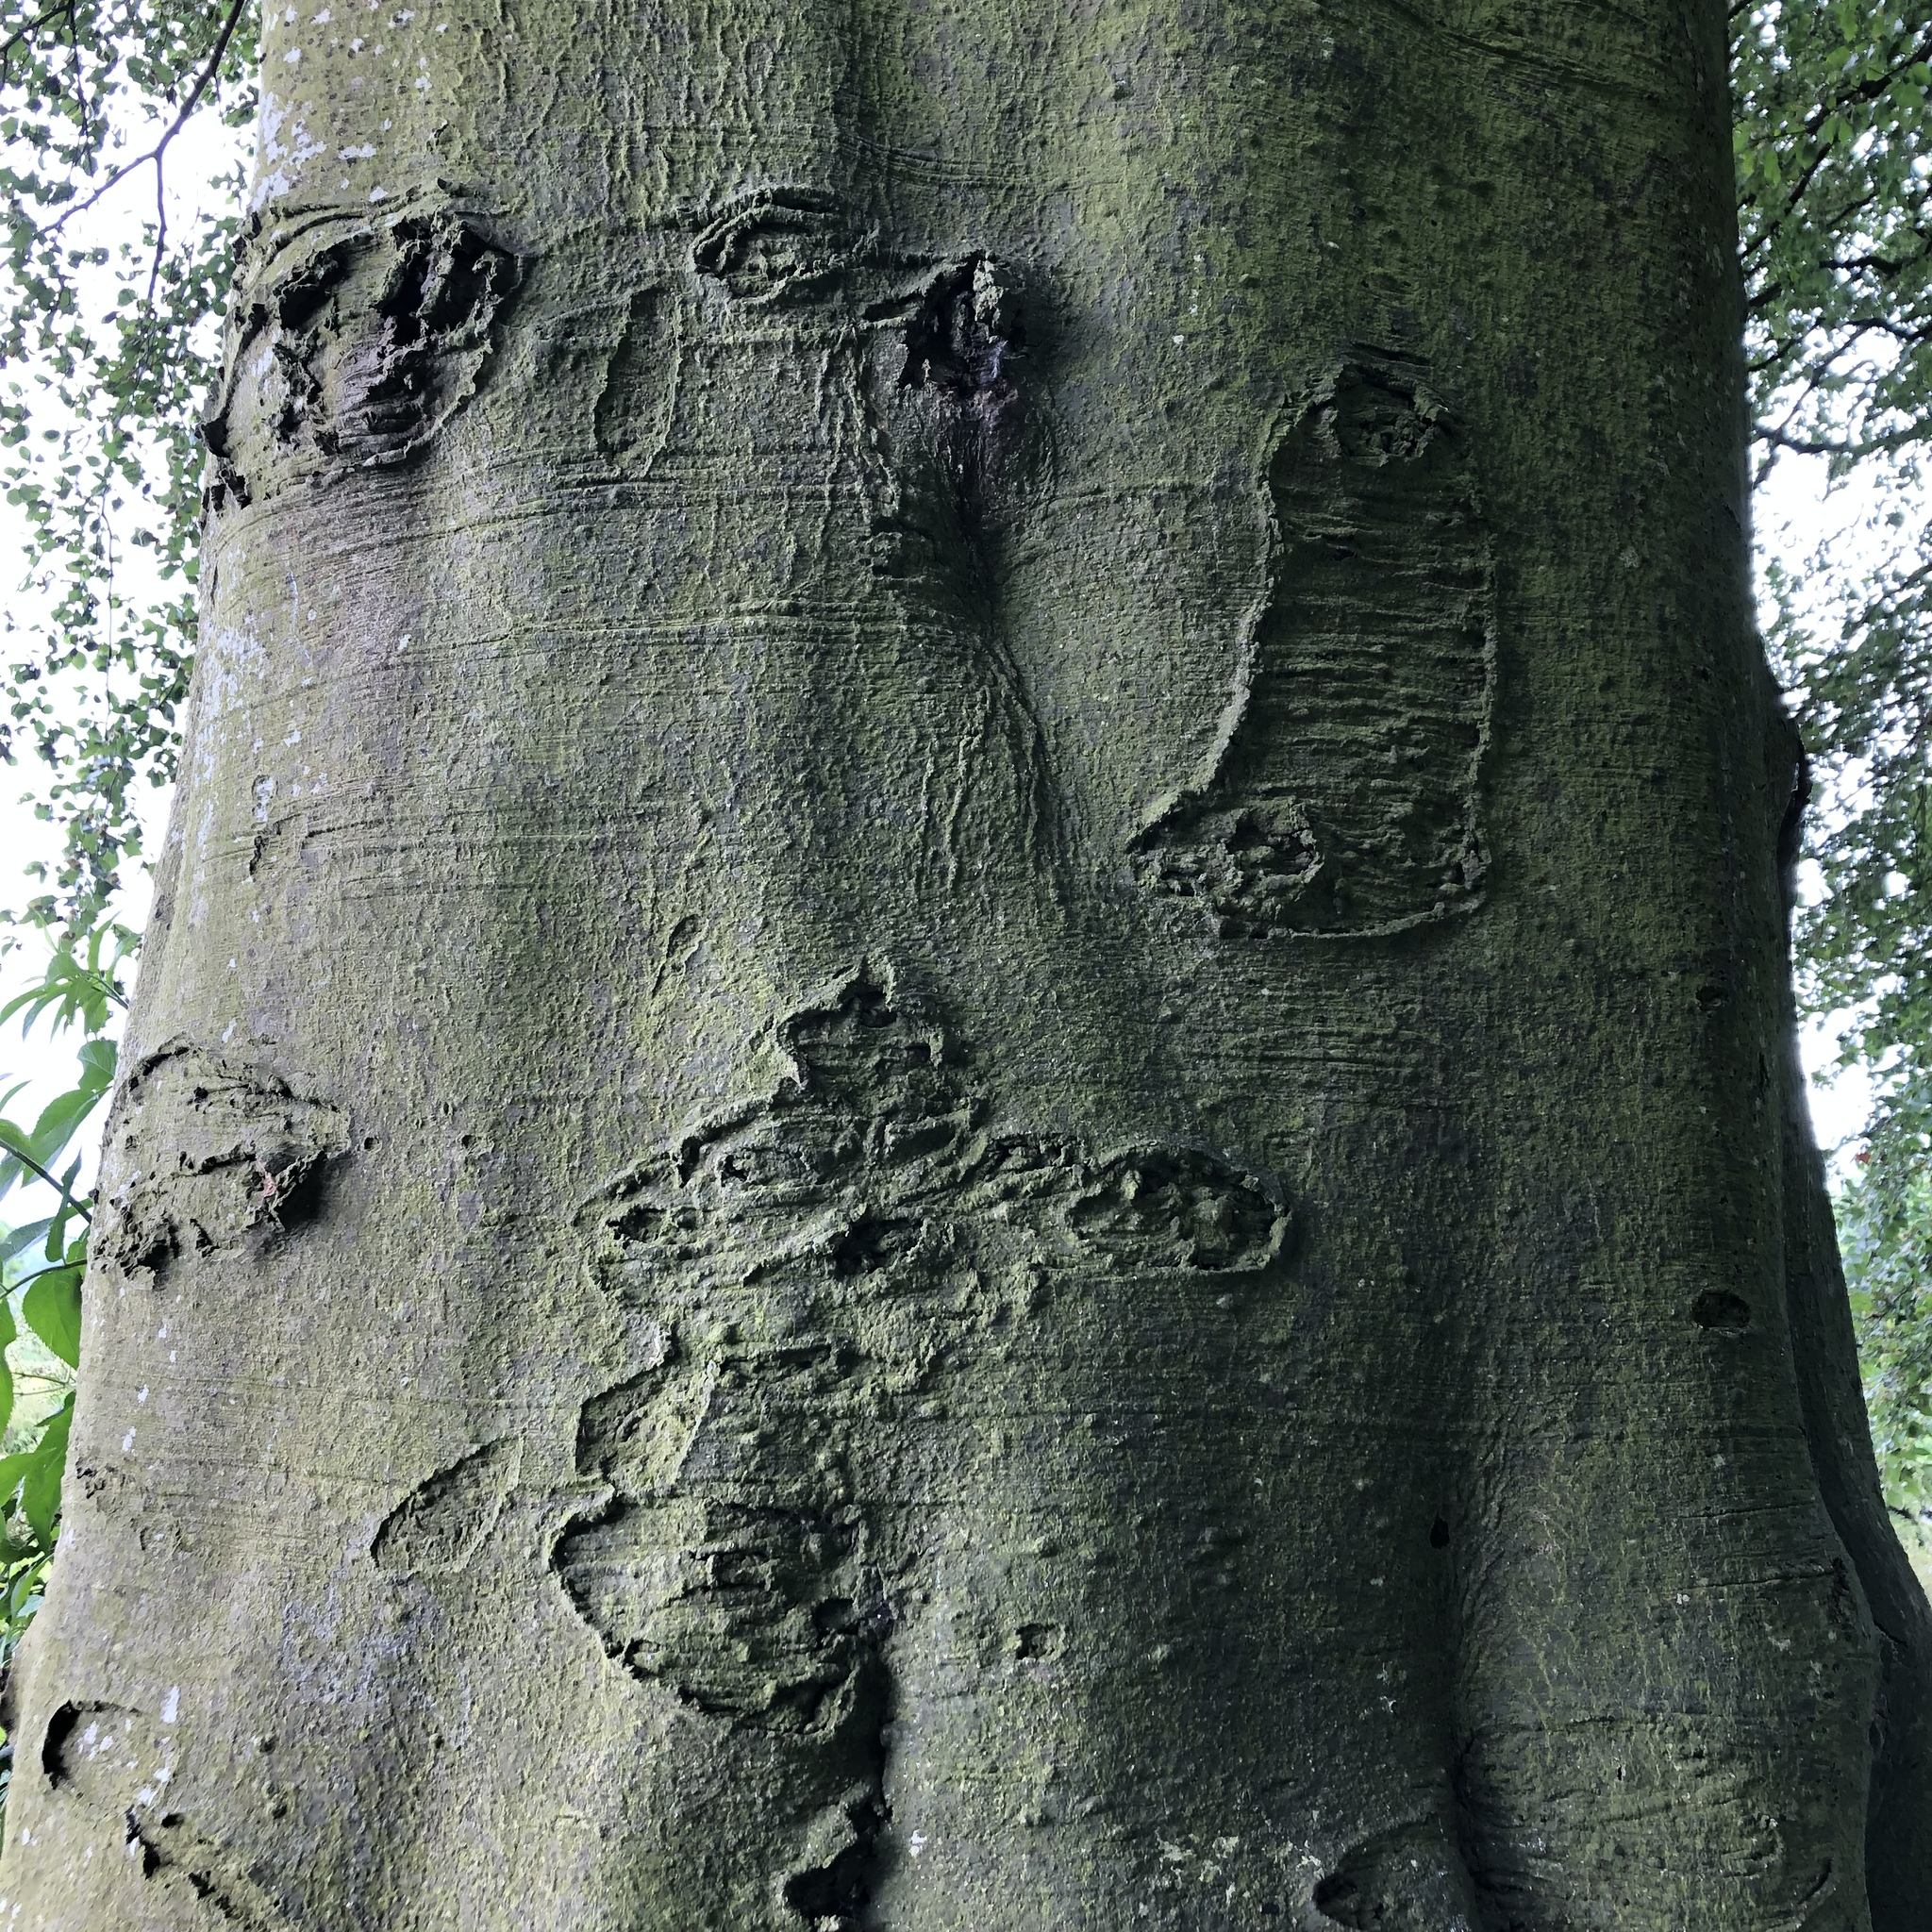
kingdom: Plantae
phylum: Tracheophyta
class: Magnoliopsida
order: Fagales
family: Fagaceae
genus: Fagus
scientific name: Fagus sylvatica
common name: Beech
